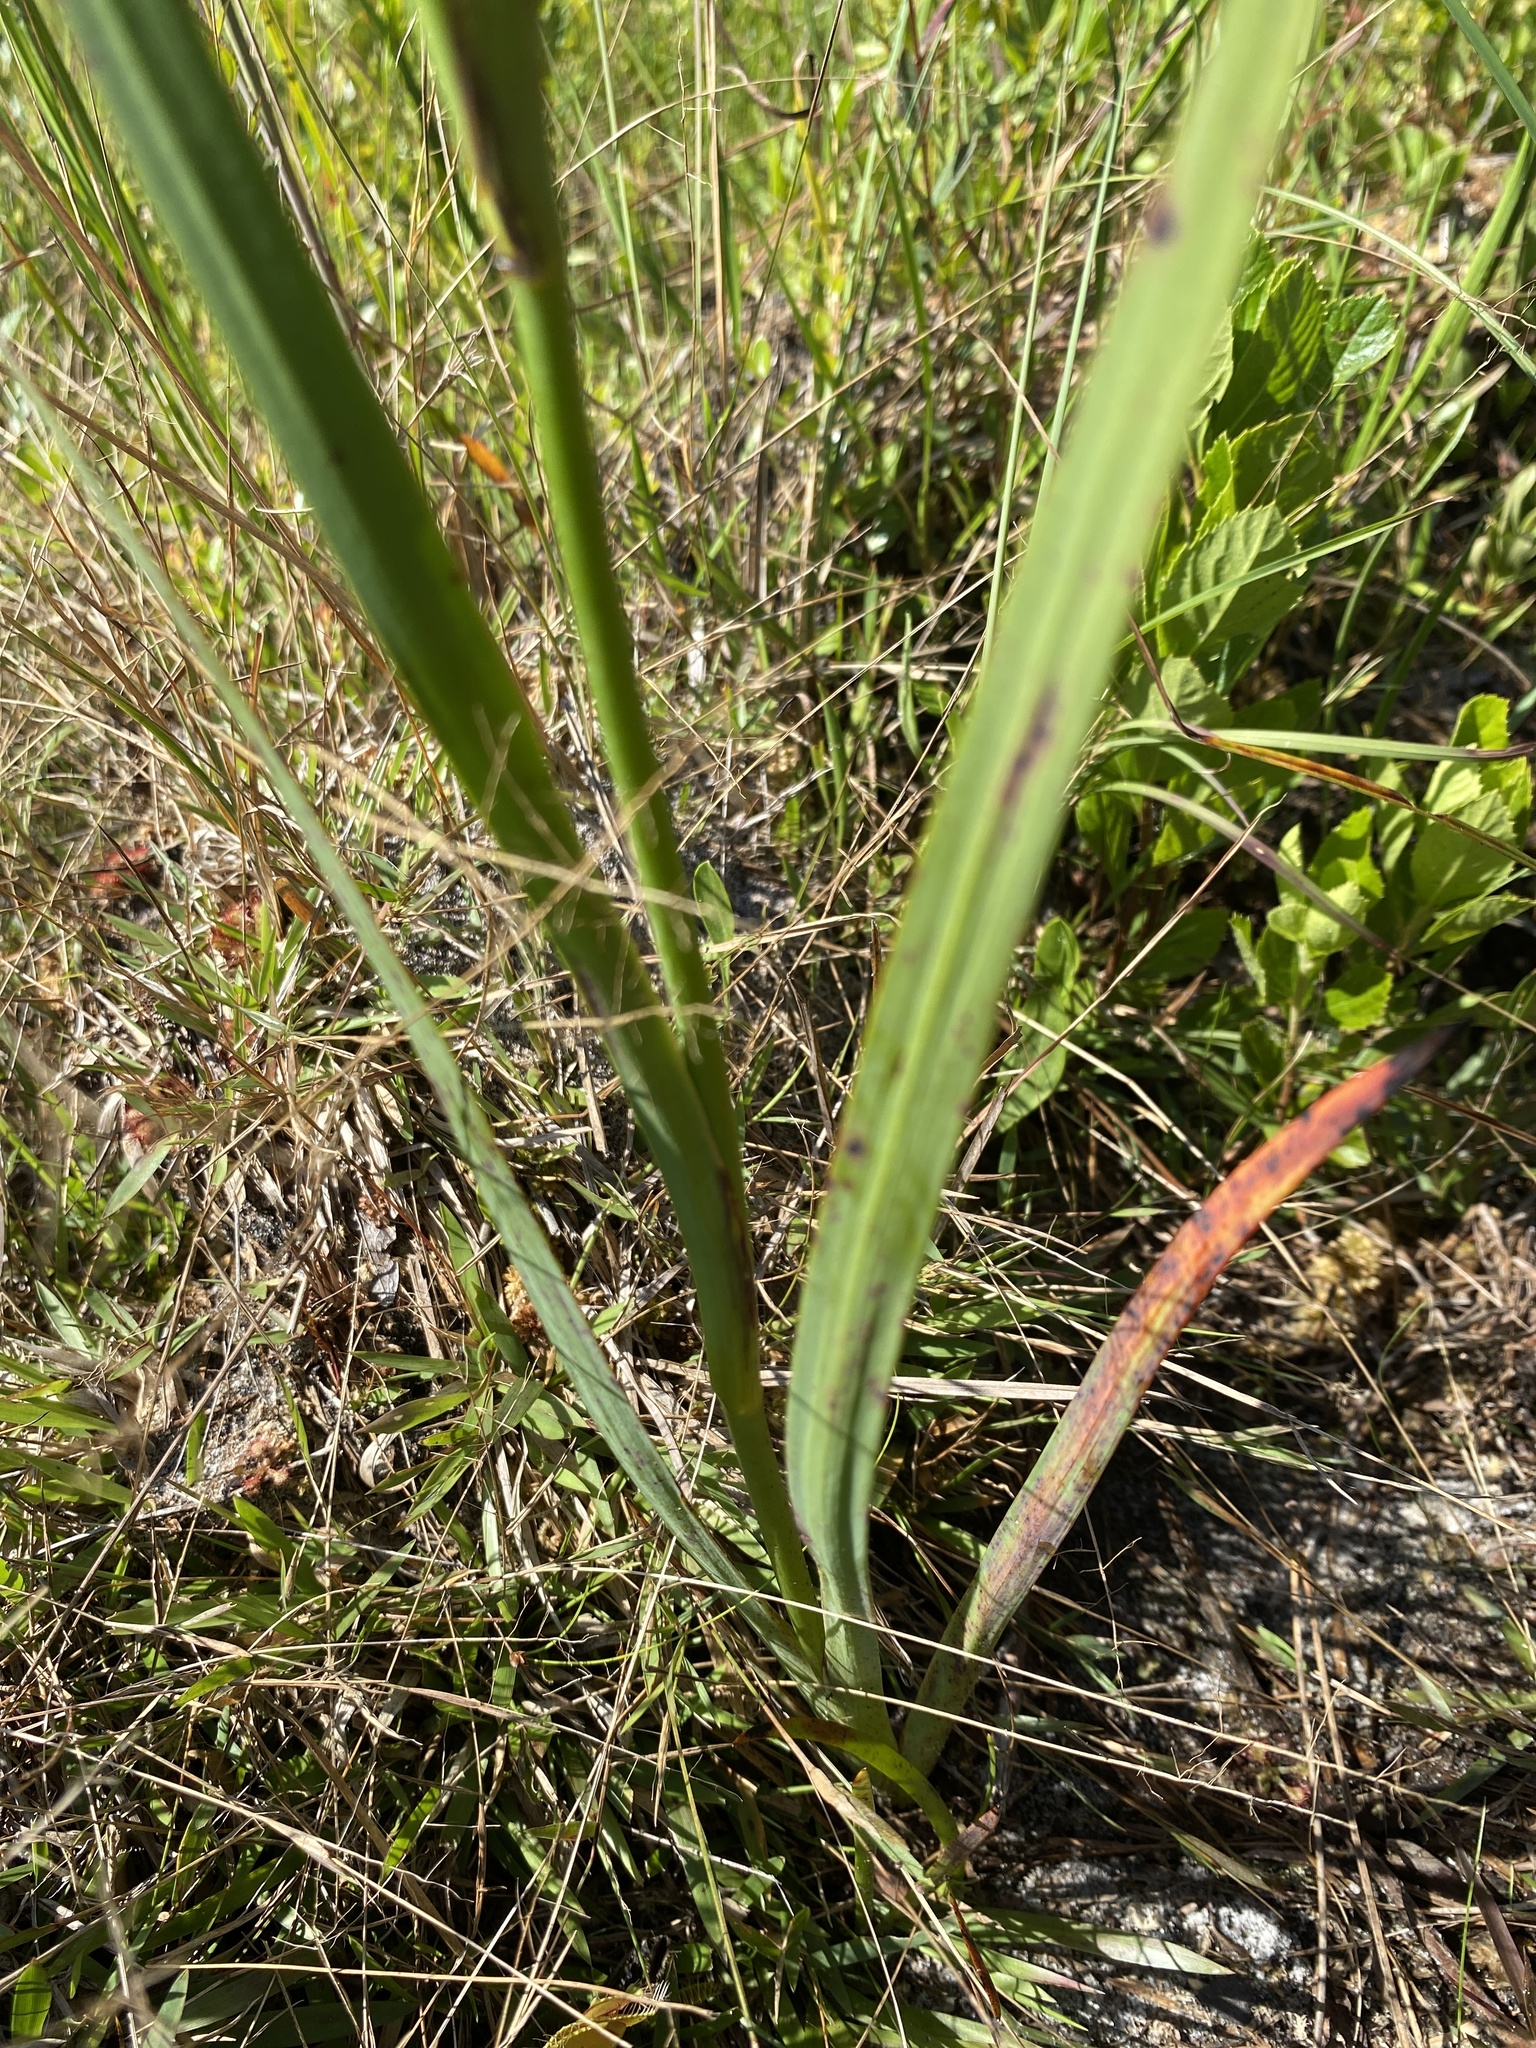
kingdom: Plantae
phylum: Tracheophyta
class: Liliopsida
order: Commelinales
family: Haemodoraceae
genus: Lachnanthes
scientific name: Lachnanthes caroliana
